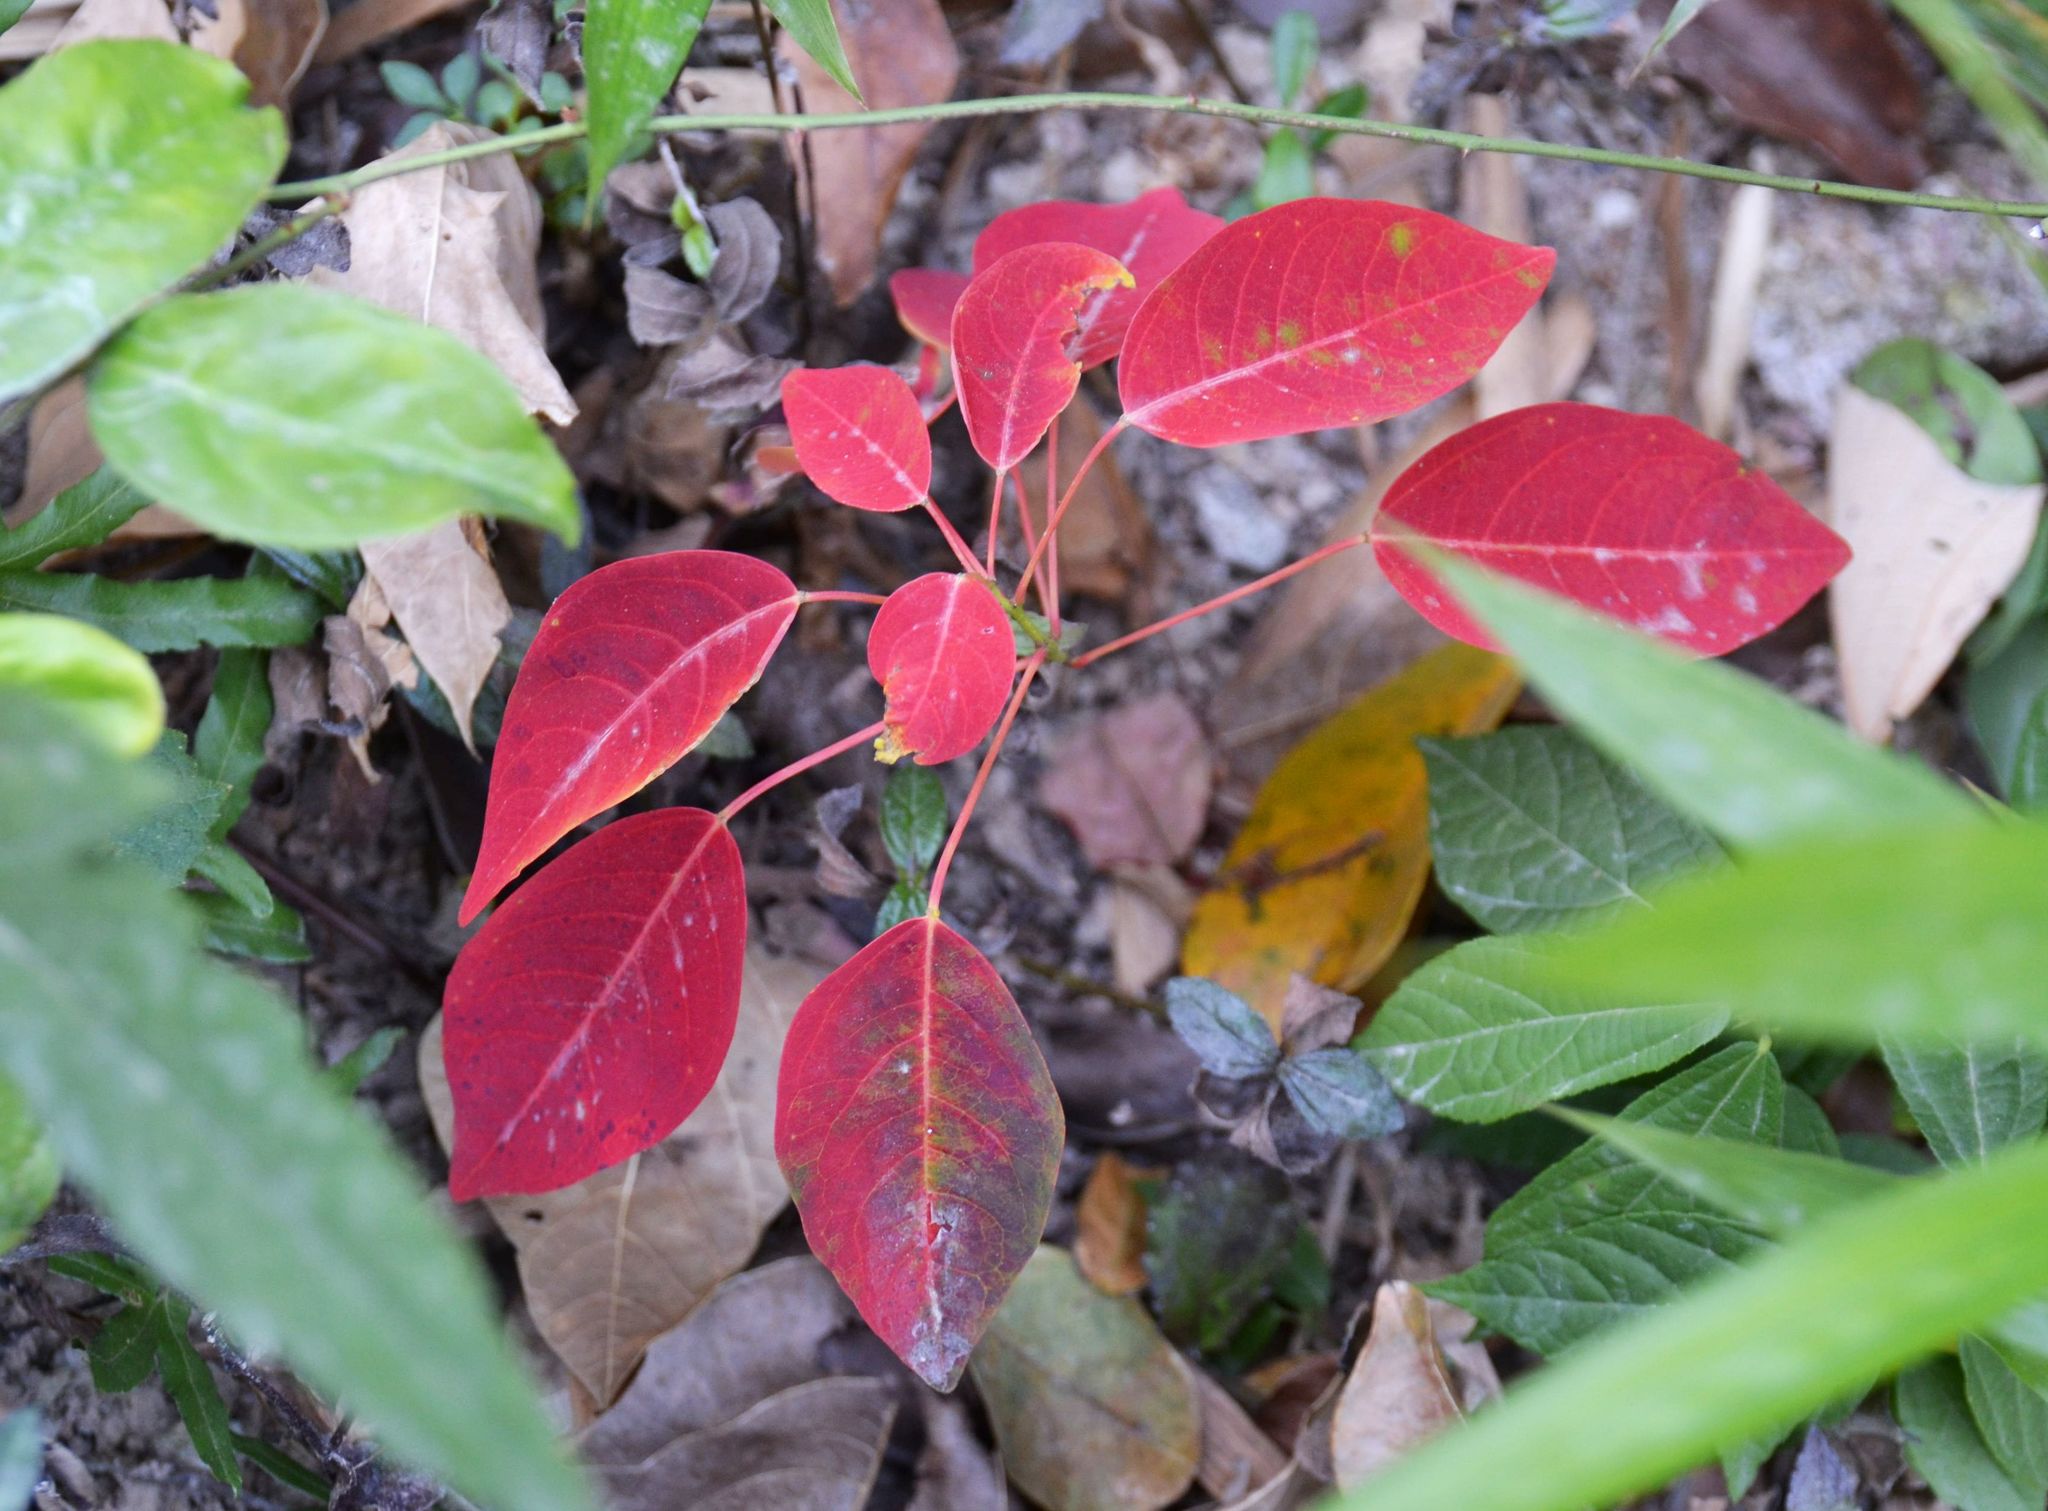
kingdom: Plantae
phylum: Tracheophyta
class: Magnoliopsida
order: Malpighiales
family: Euphorbiaceae
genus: Triadica
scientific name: Triadica cochinchinensis
